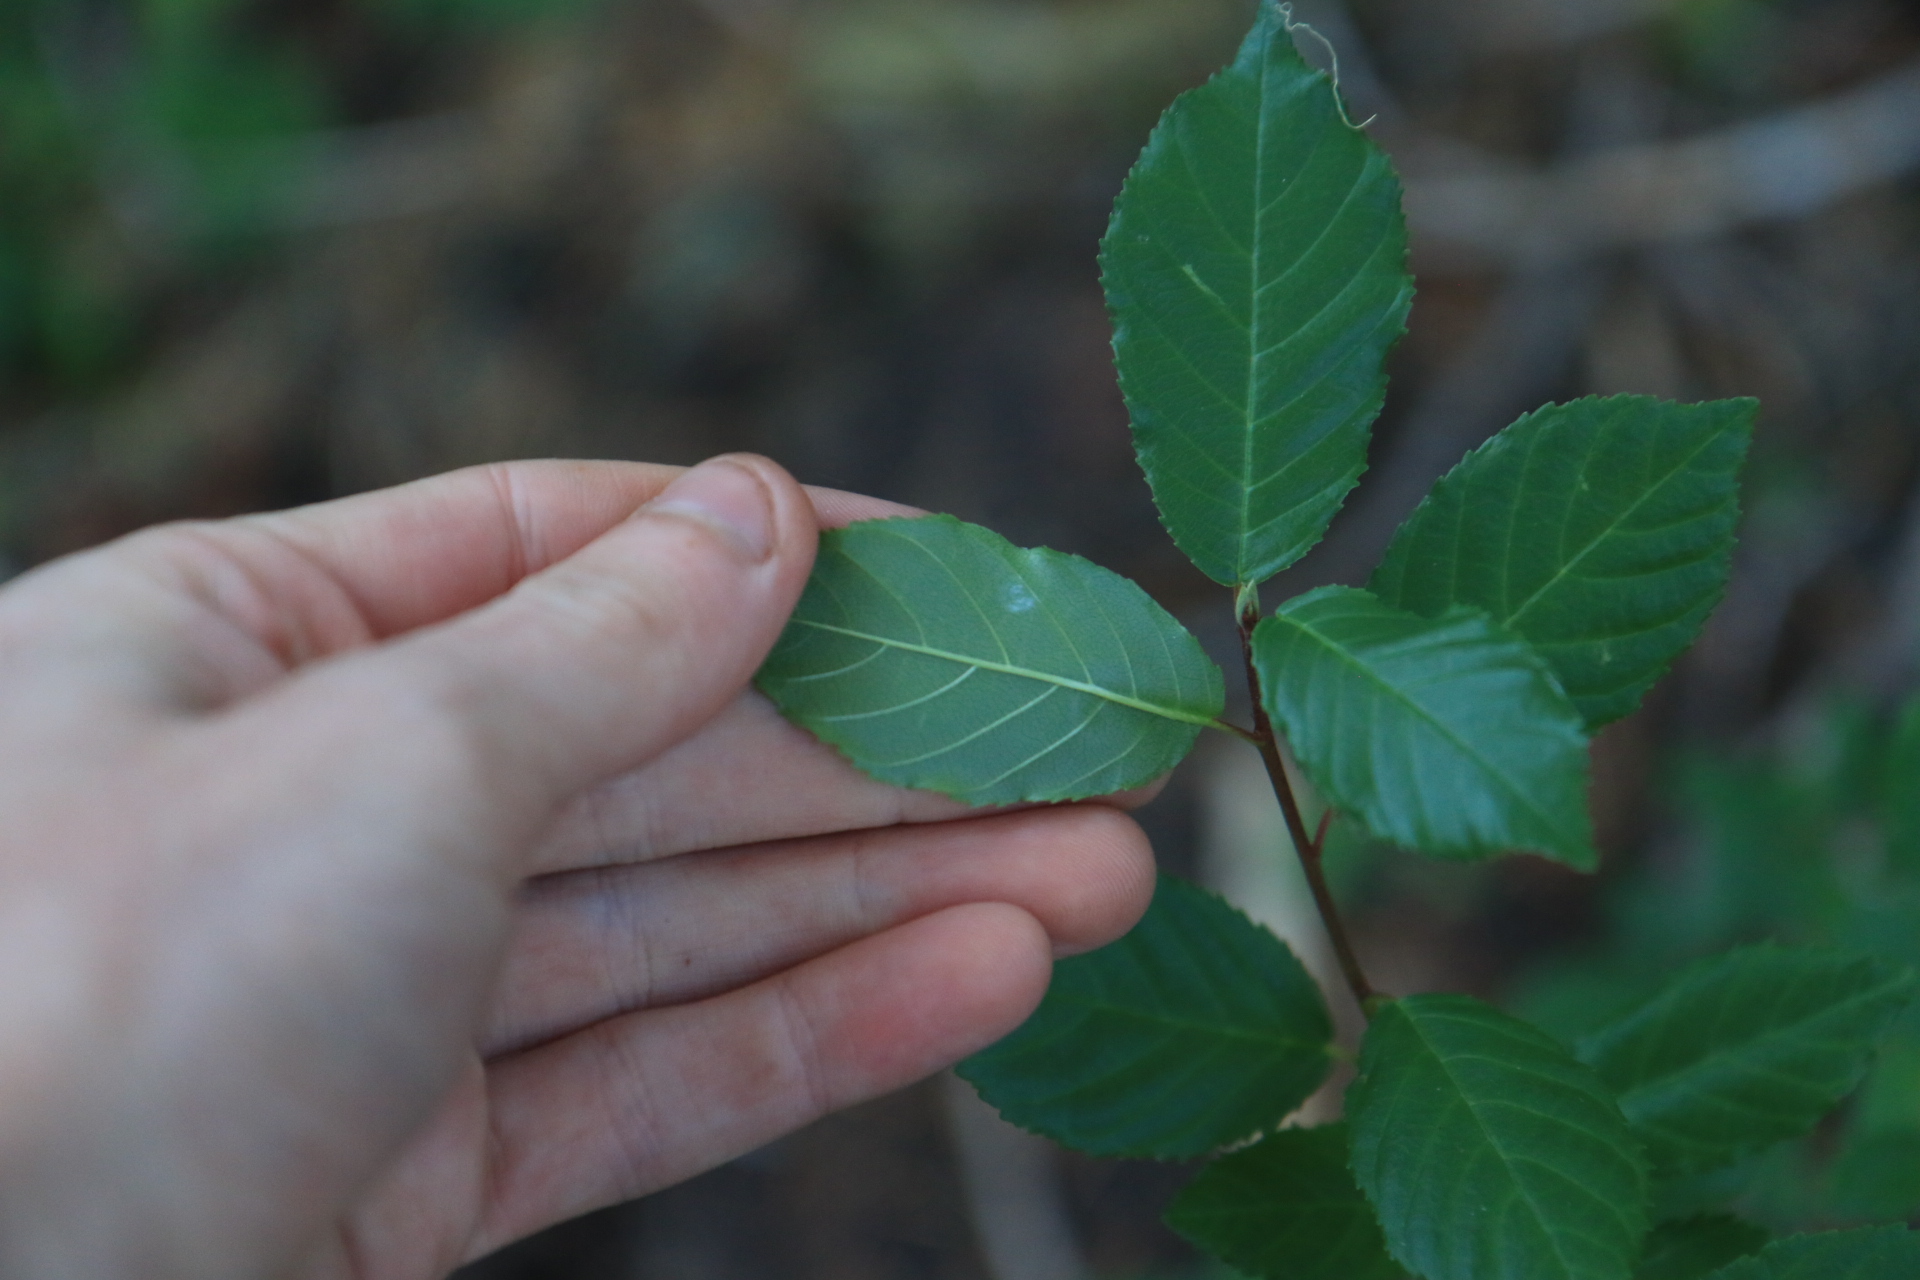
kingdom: Plantae
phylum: Tracheophyta
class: Magnoliopsida
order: Rosales
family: Rhamnaceae
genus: Frangula
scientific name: Frangula purshiana
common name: Cascara buckthorn
